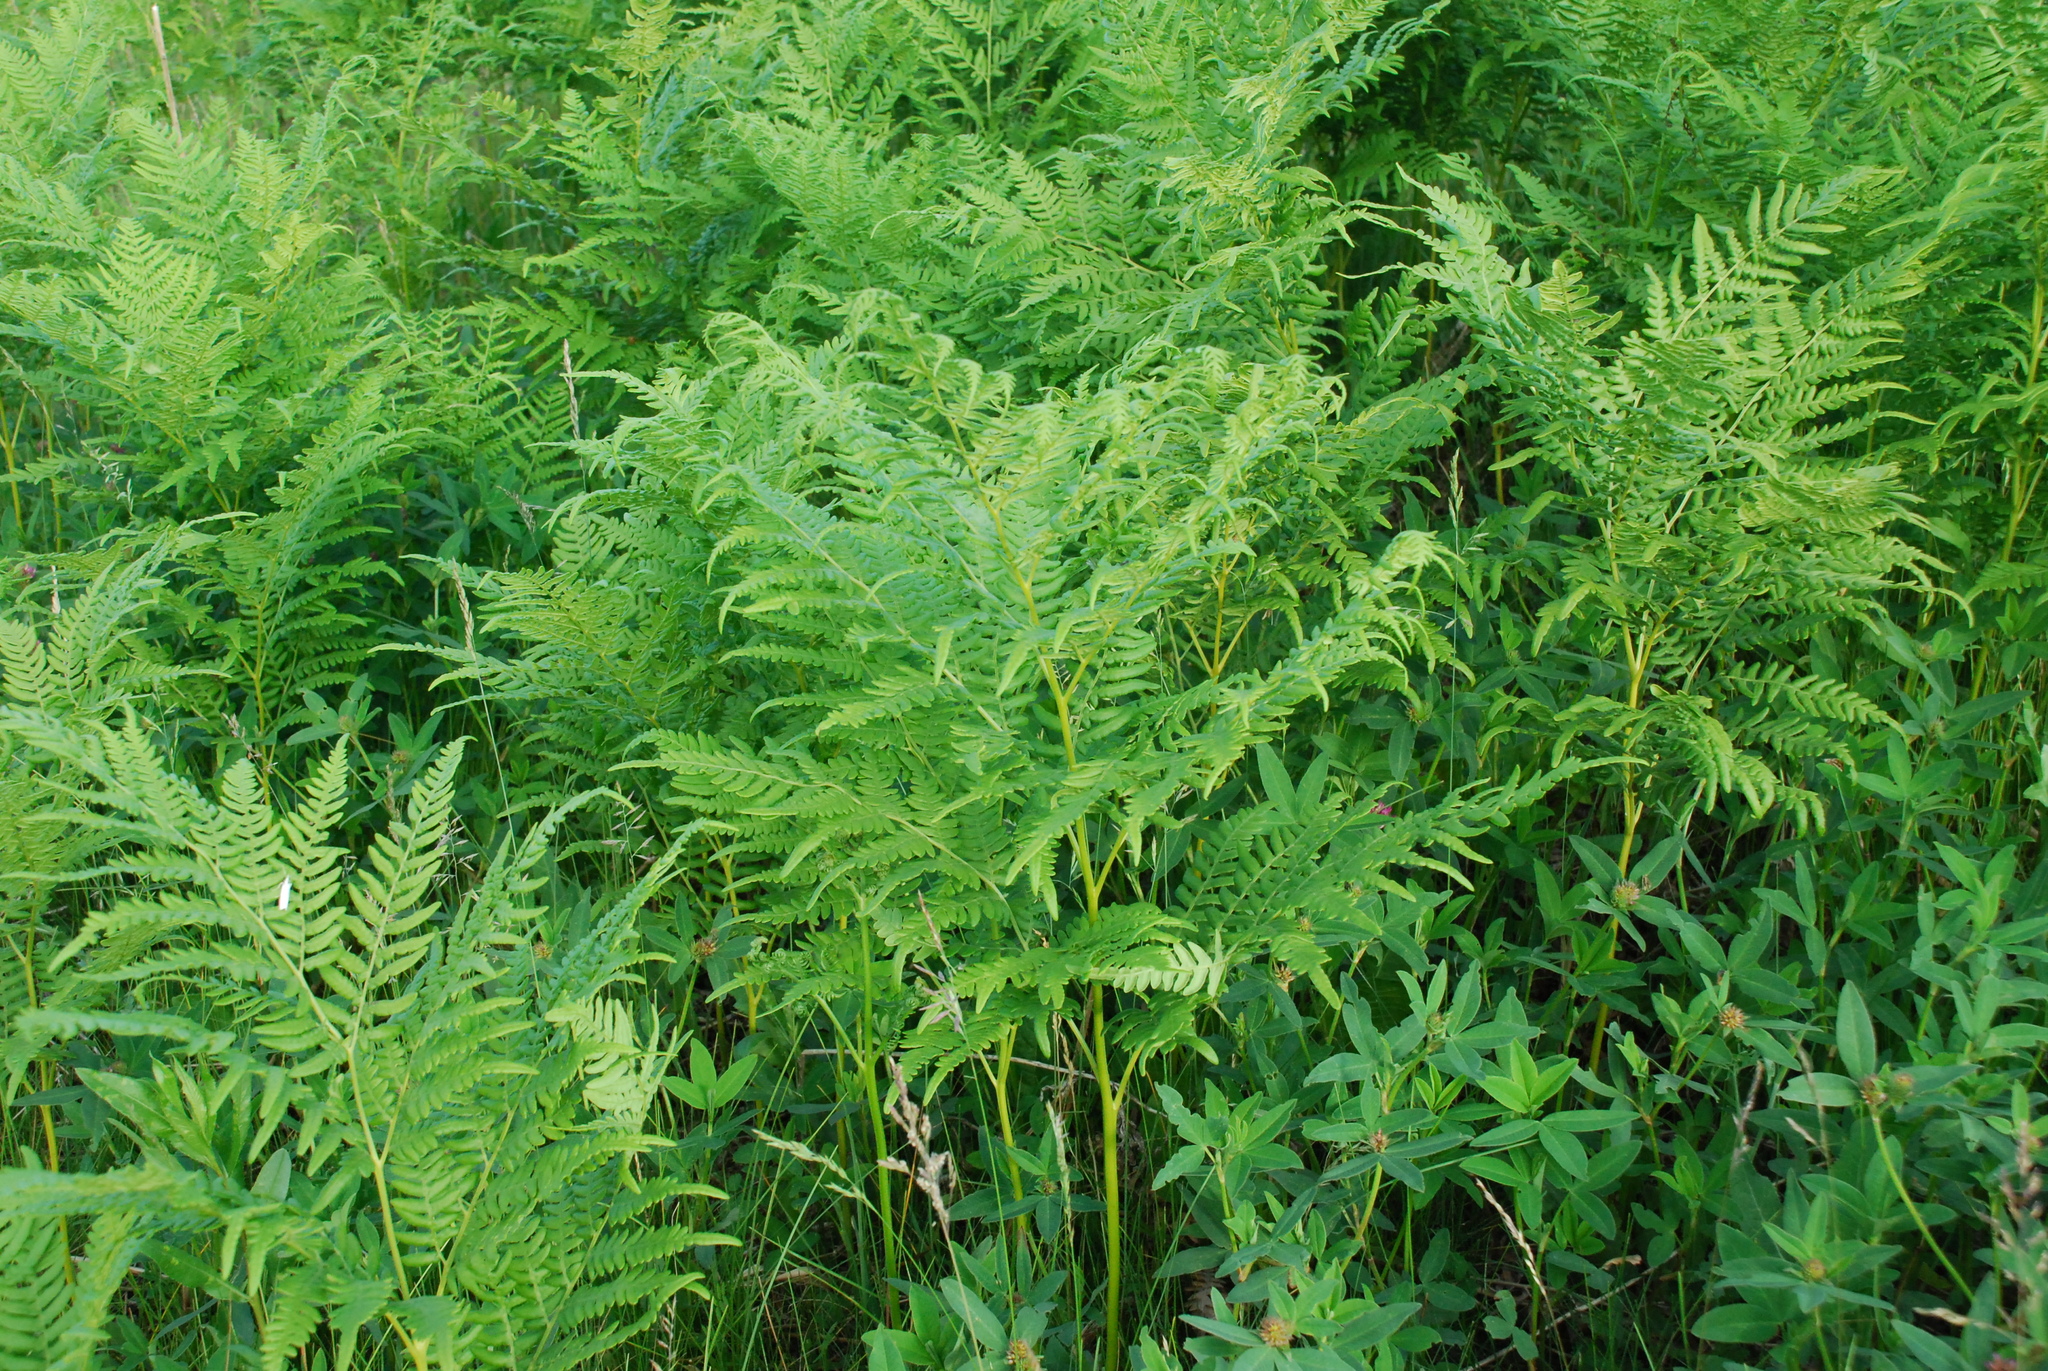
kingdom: Plantae
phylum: Tracheophyta
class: Polypodiopsida
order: Polypodiales
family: Dennstaedtiaceae
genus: Pteridium
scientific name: Pteridium aquilinum
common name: Bracken
